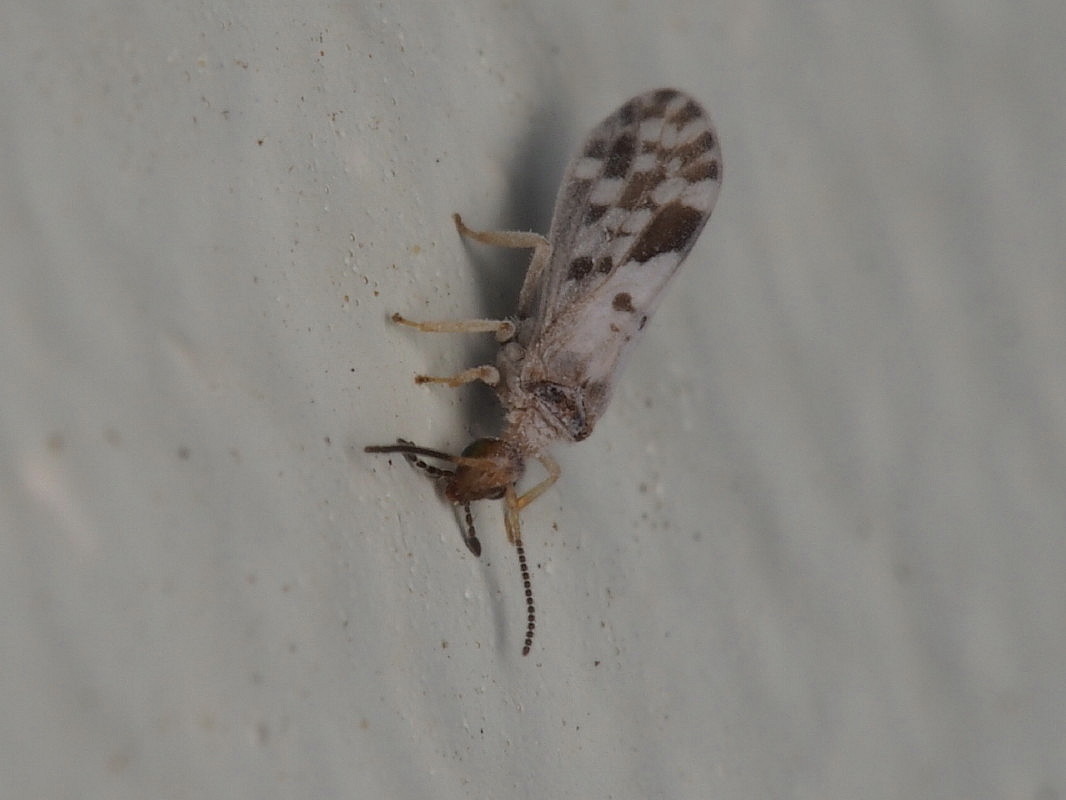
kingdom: Animalia
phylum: Arthropoda
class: Insecta
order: Neuroptera
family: Coniopterygidae
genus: Heteroconis
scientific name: Heteroconis ornata
